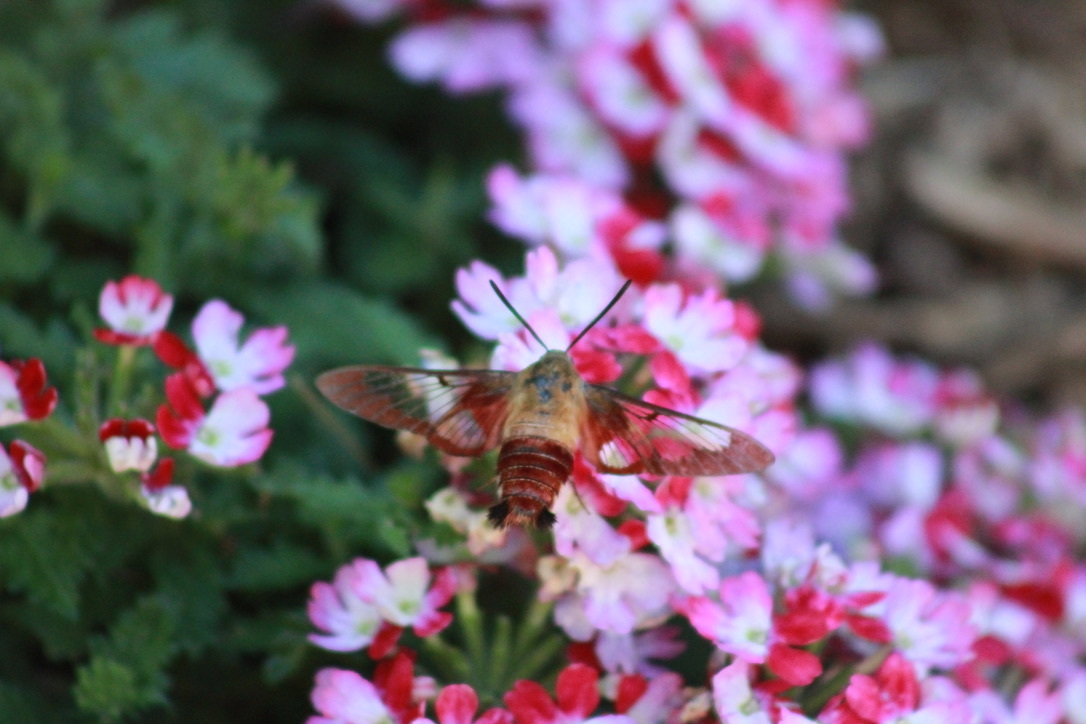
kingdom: Animalia
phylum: Arthropoda
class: Insecta
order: Lepidoptera
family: Sphingidae
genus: Hemaris
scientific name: Hemaris thysbe
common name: Common clear-wing
